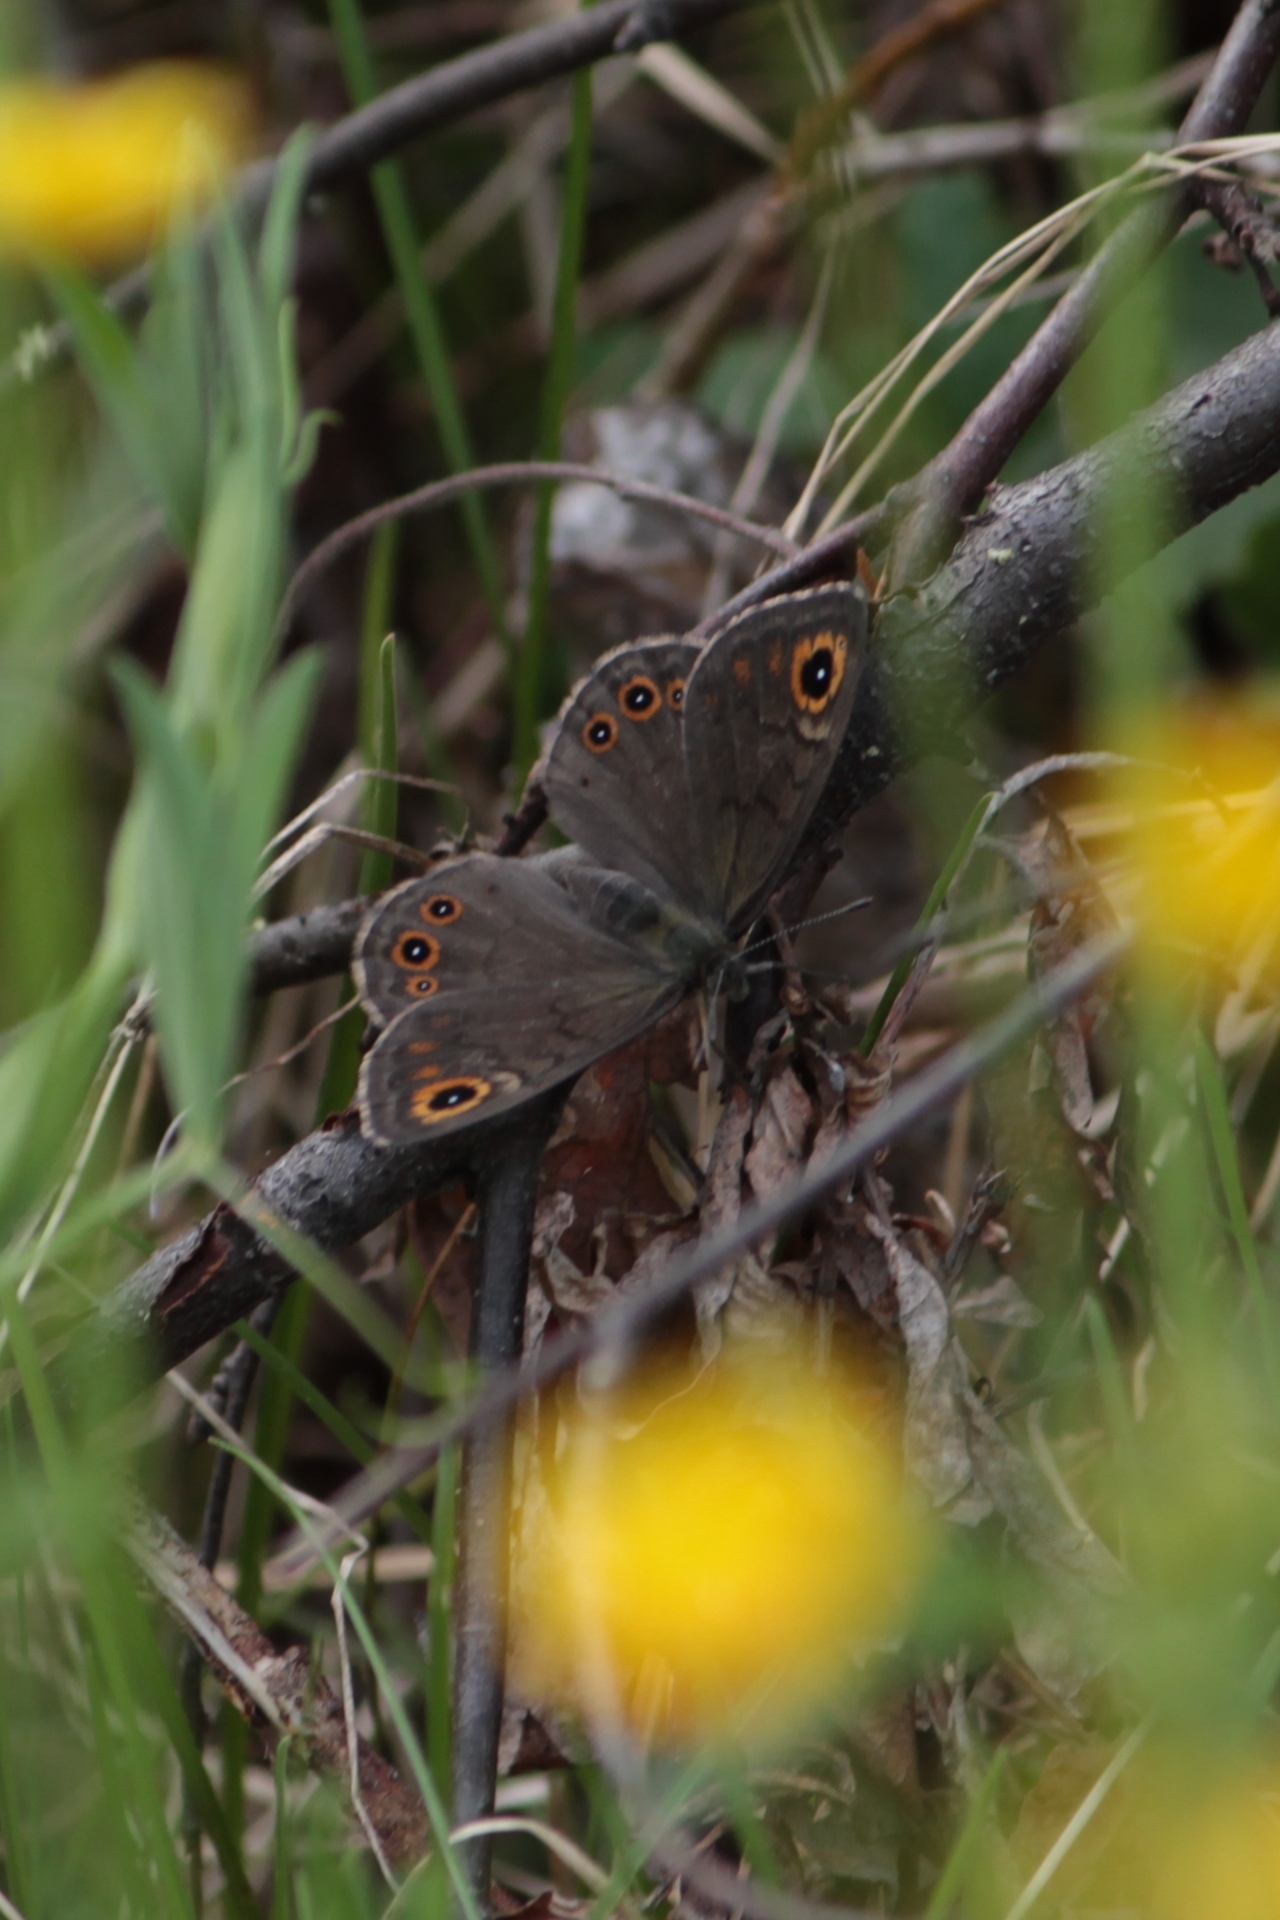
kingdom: Animalia
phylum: Arthropoda
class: Insecta
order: Lepidoptera
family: Nymphalidae
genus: Pararge
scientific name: Pararge petropolitana
